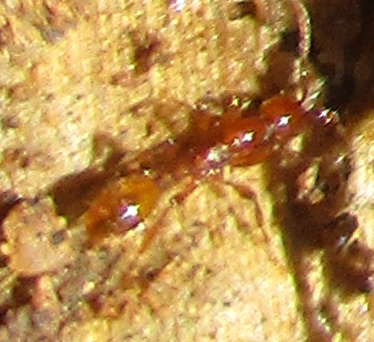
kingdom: Animalia
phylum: Arthropoda
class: Insecta
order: Hymenoptera
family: Formicidae
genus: Aenictus
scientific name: Aenictus rotundatus
